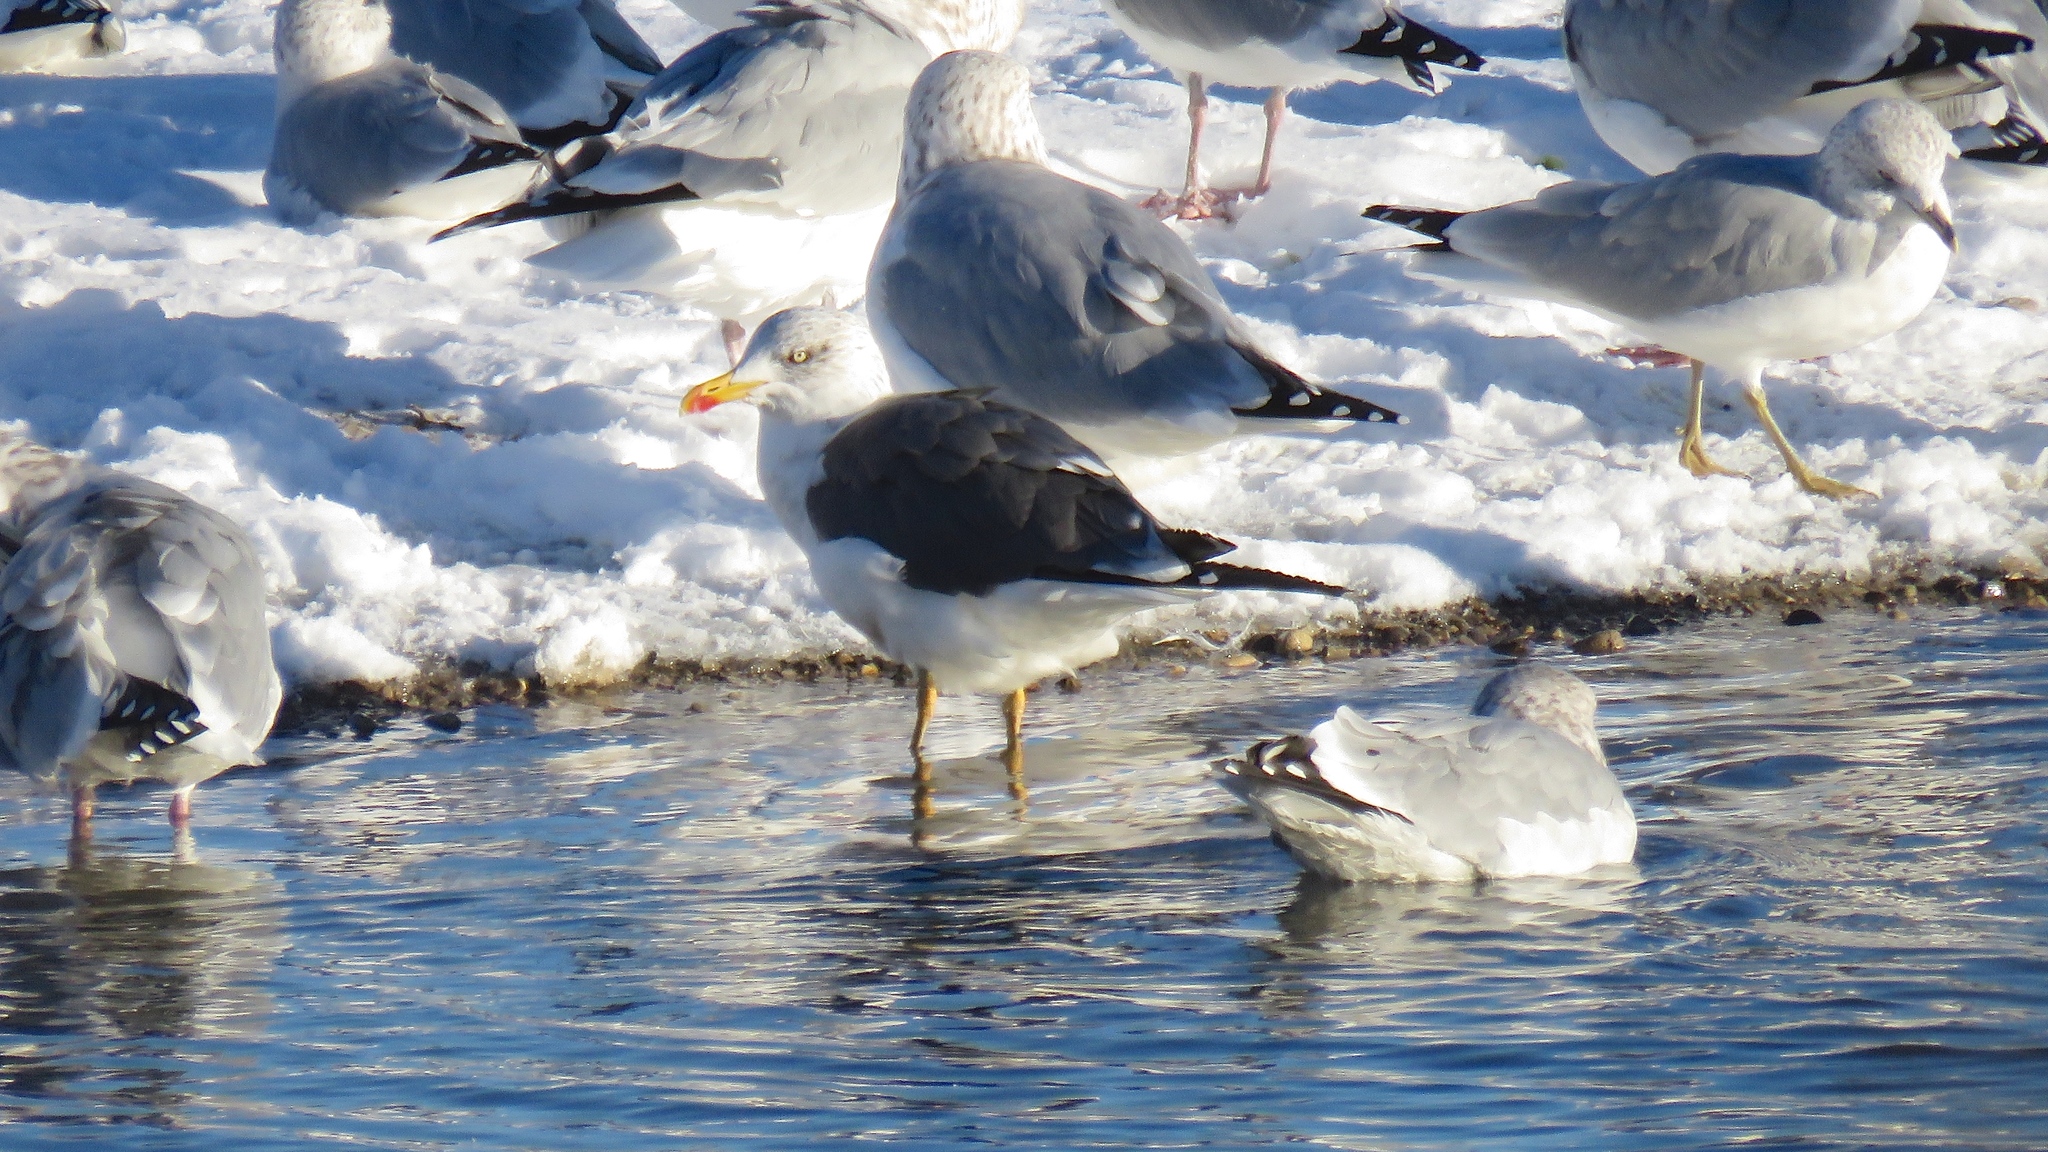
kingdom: Animalia
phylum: Chordata
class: Aves
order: Charadriiformes
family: Laridae
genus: Larus
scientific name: Larus fuscus
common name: Lesser black-backed gull
